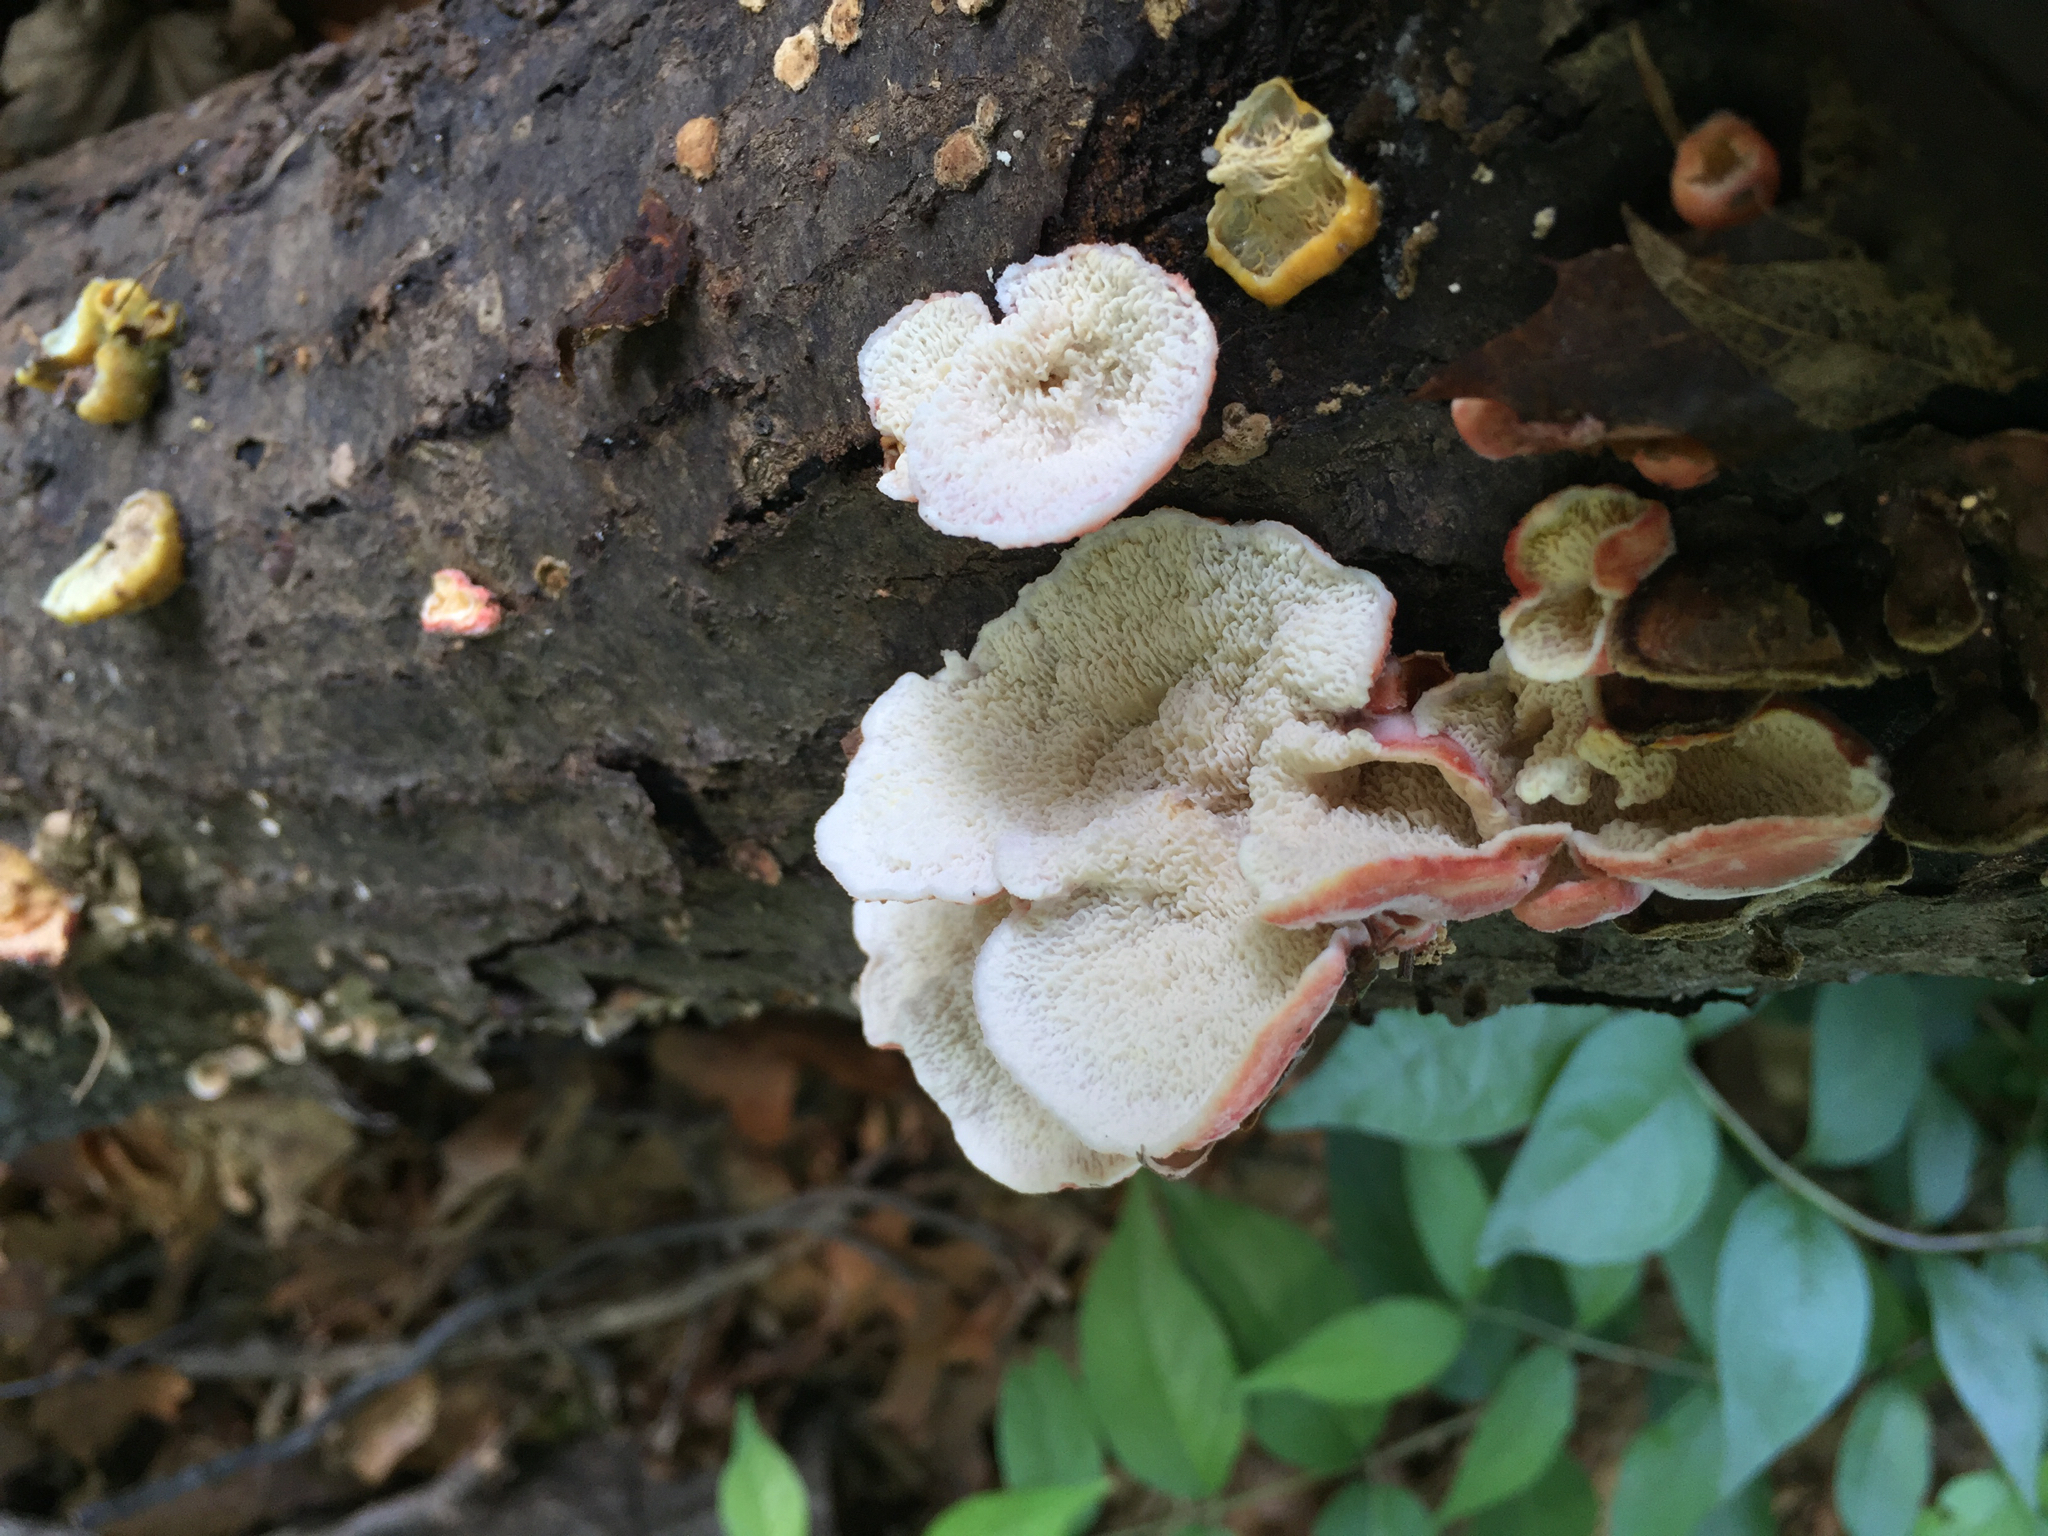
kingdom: Fungi
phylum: Basidiomycota
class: Agaricomycetes
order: Polyporales
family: Irpicaceae
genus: Byssomerulius
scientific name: Byssomerulius incarnatus
